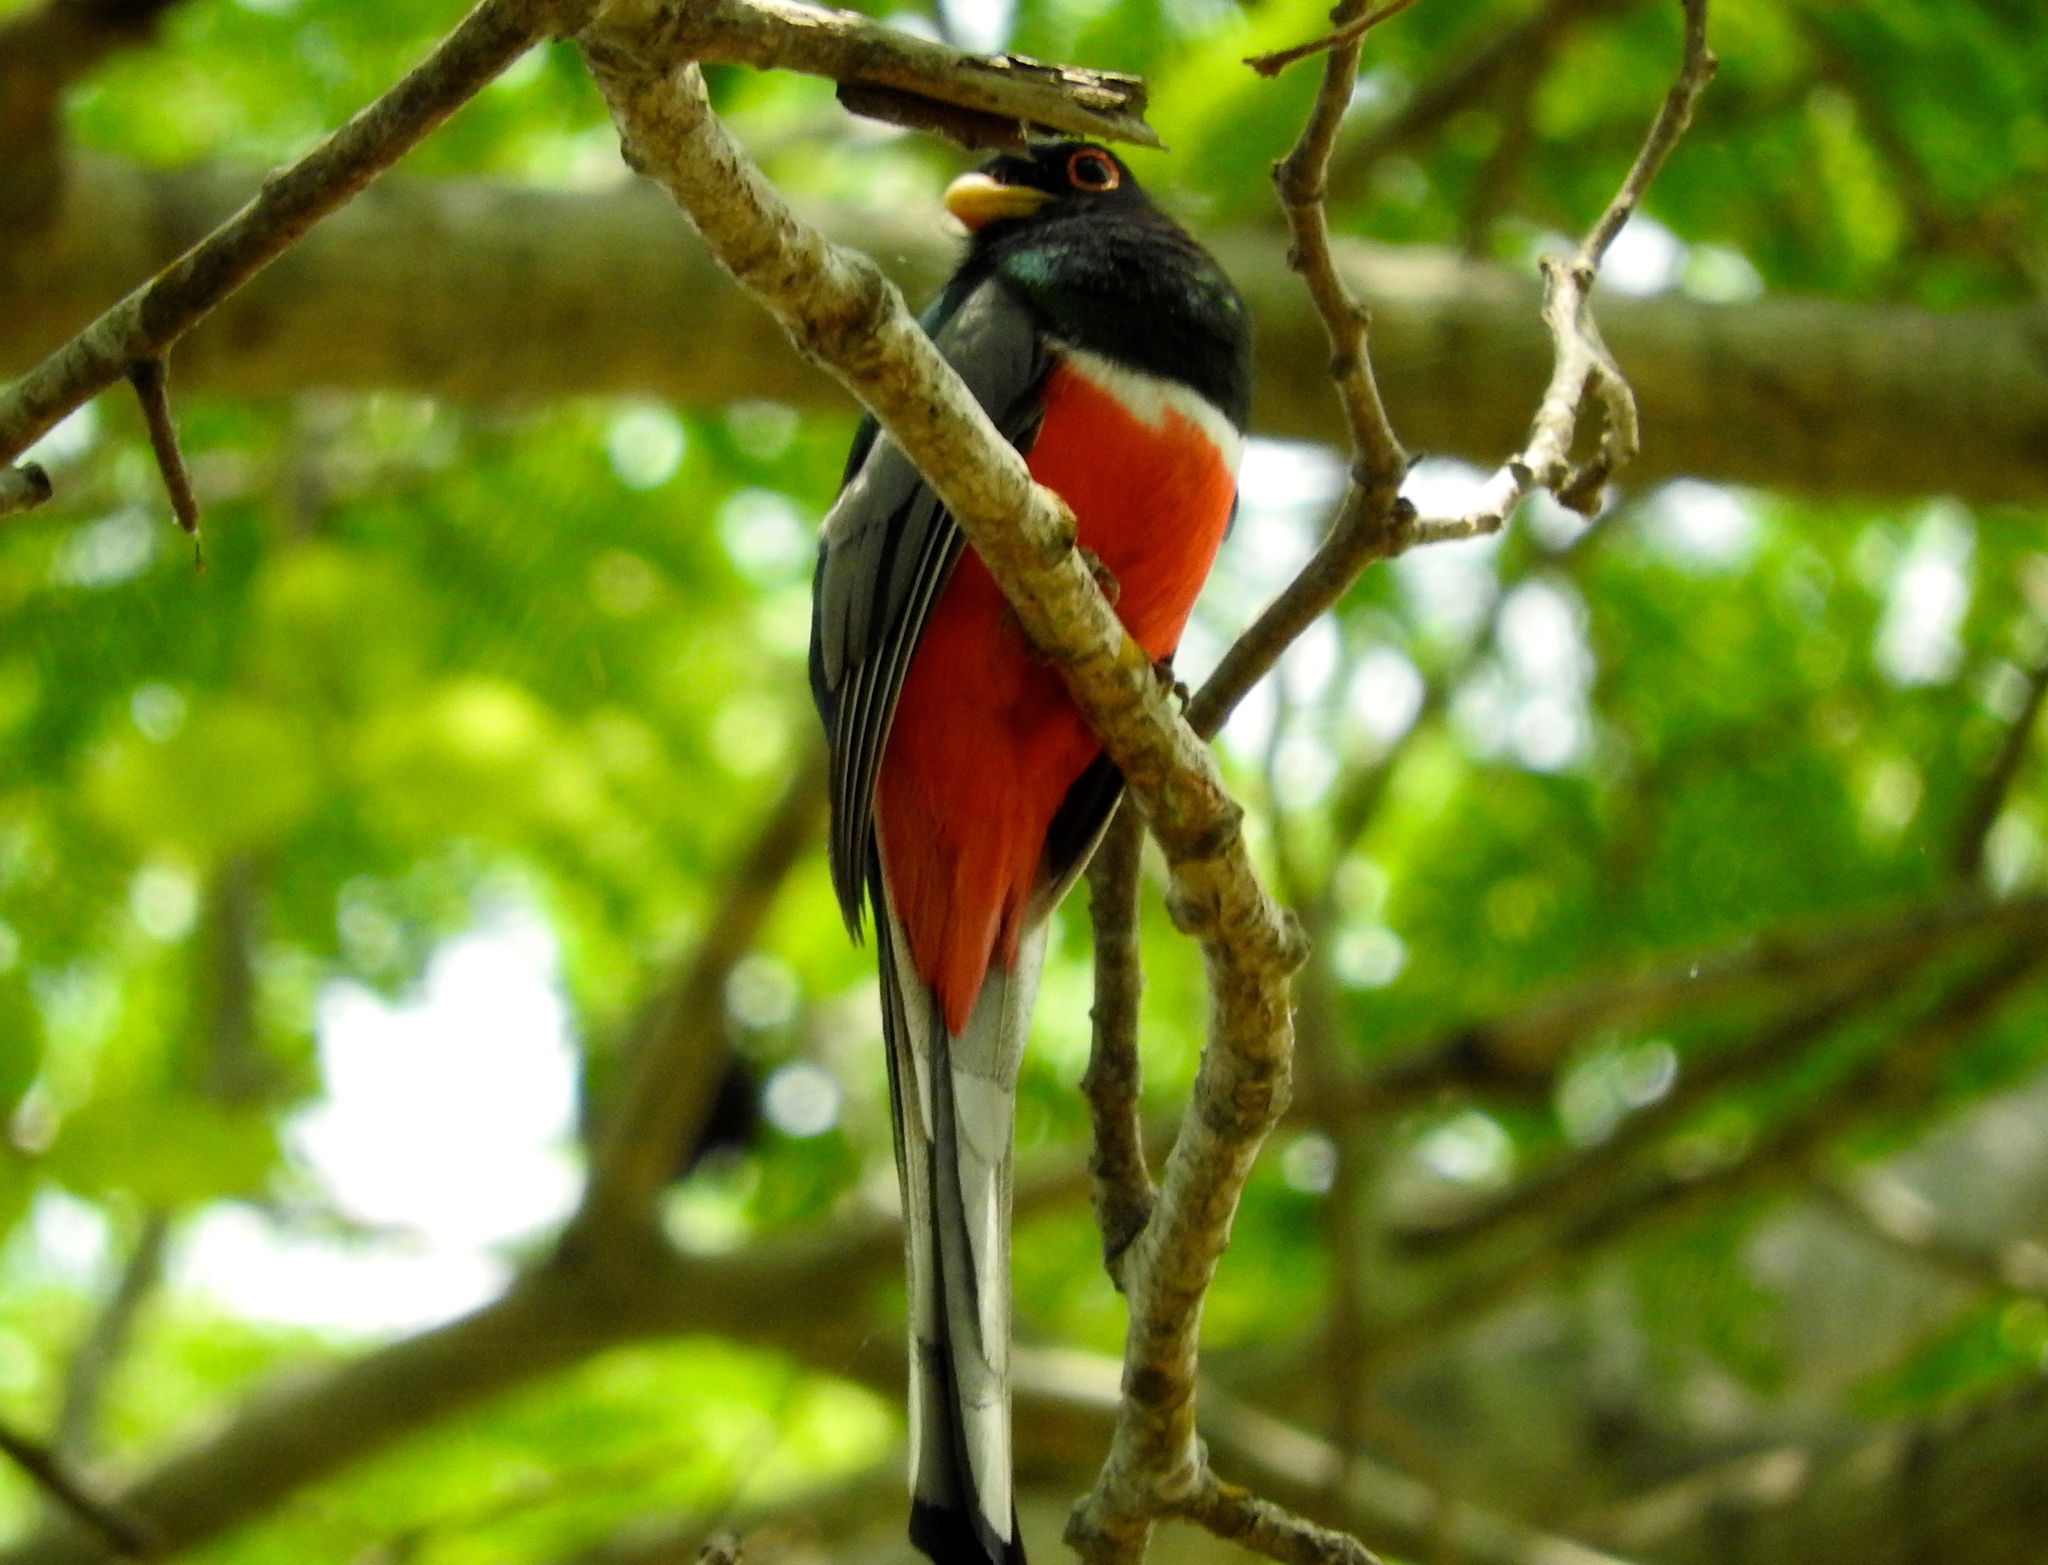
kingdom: Animalia
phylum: Chordata
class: Aves
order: Trogoniformes
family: Trogonidae
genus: Trogon
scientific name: Trogon elegans
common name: Elegant trogon
